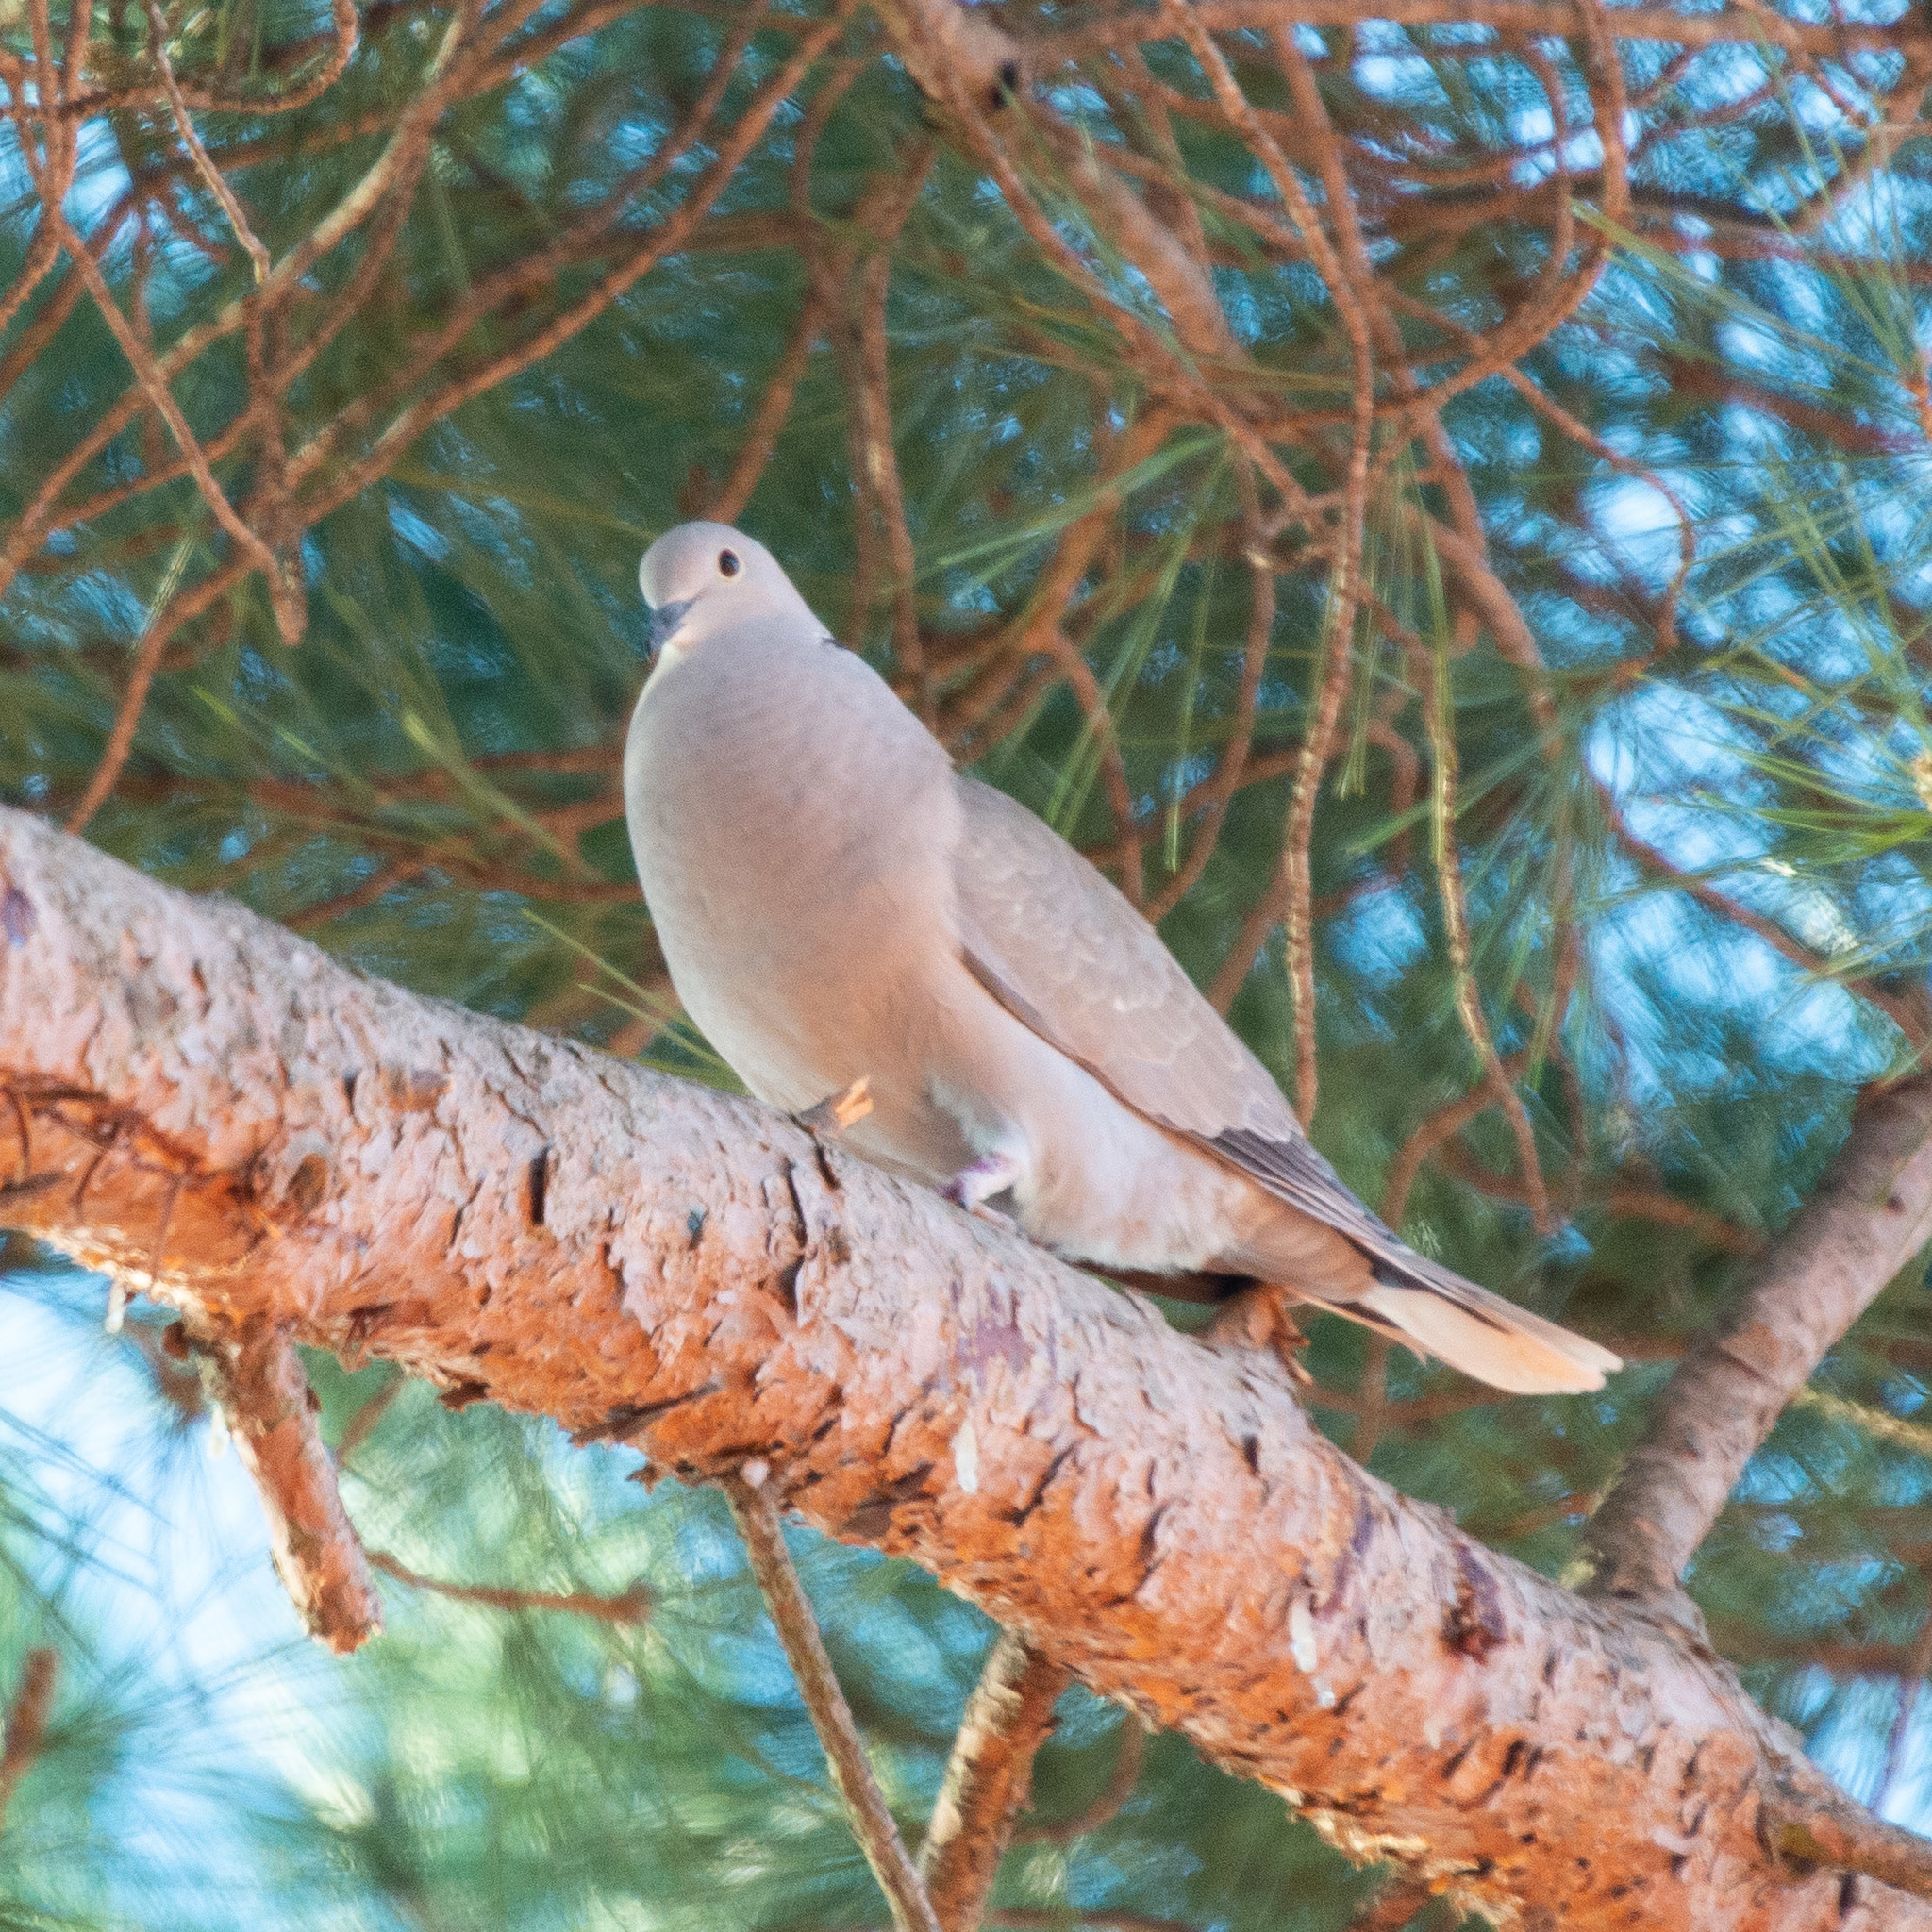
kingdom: Animalia
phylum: Chordata
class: Aves
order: Columbiformes
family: Columbidae
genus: Streptopelia
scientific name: Streptopelia decaocto
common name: Eurasian collared dove
